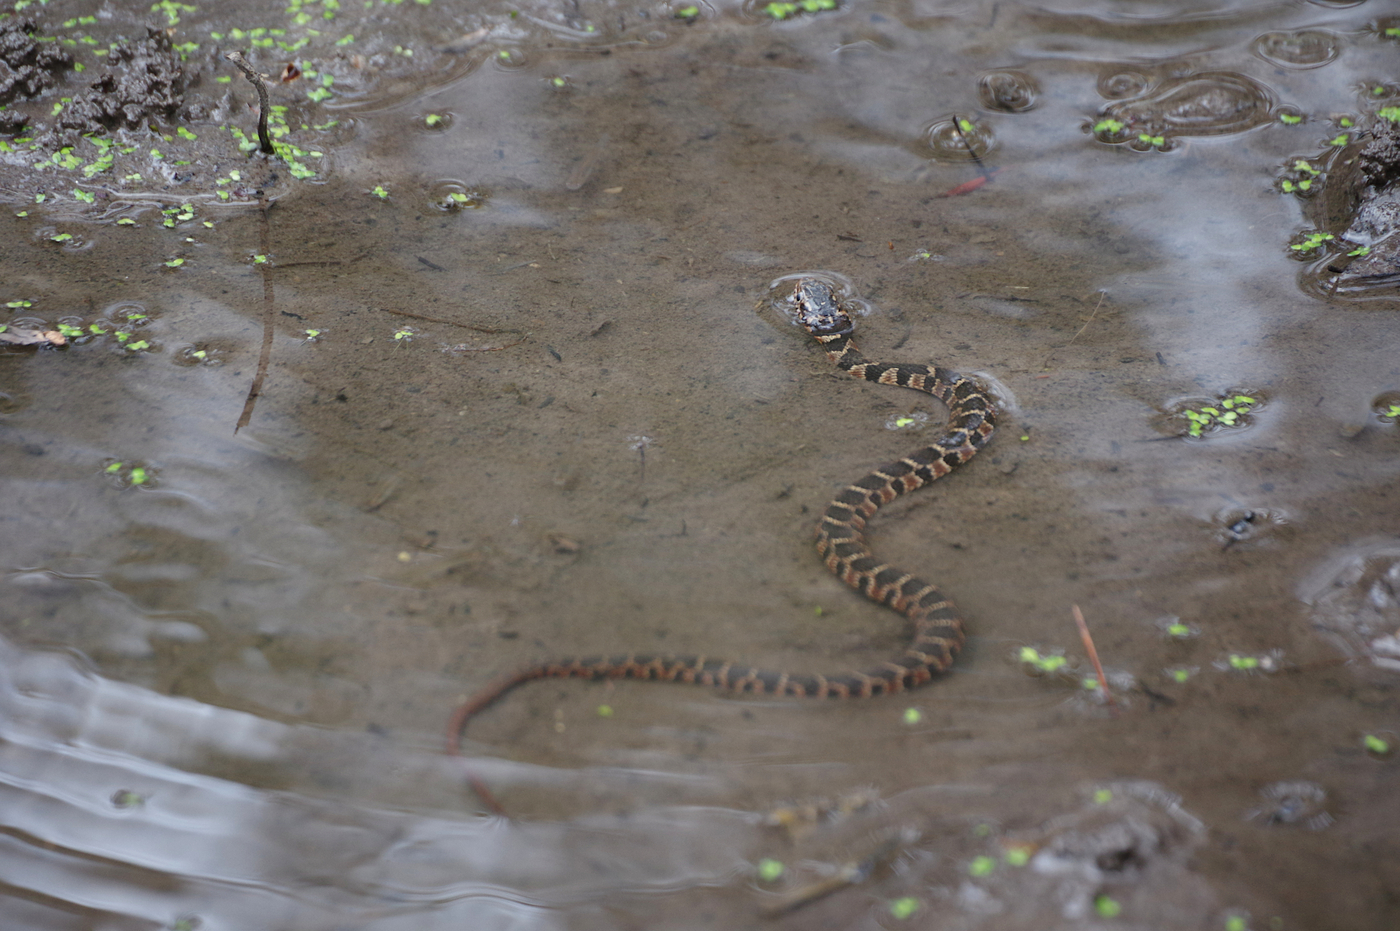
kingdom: Animalia
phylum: Chordata
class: Squamata
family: Colubridae
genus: Nerodia
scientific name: Nerodia erythrogaster
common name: Plainbelly water snake
